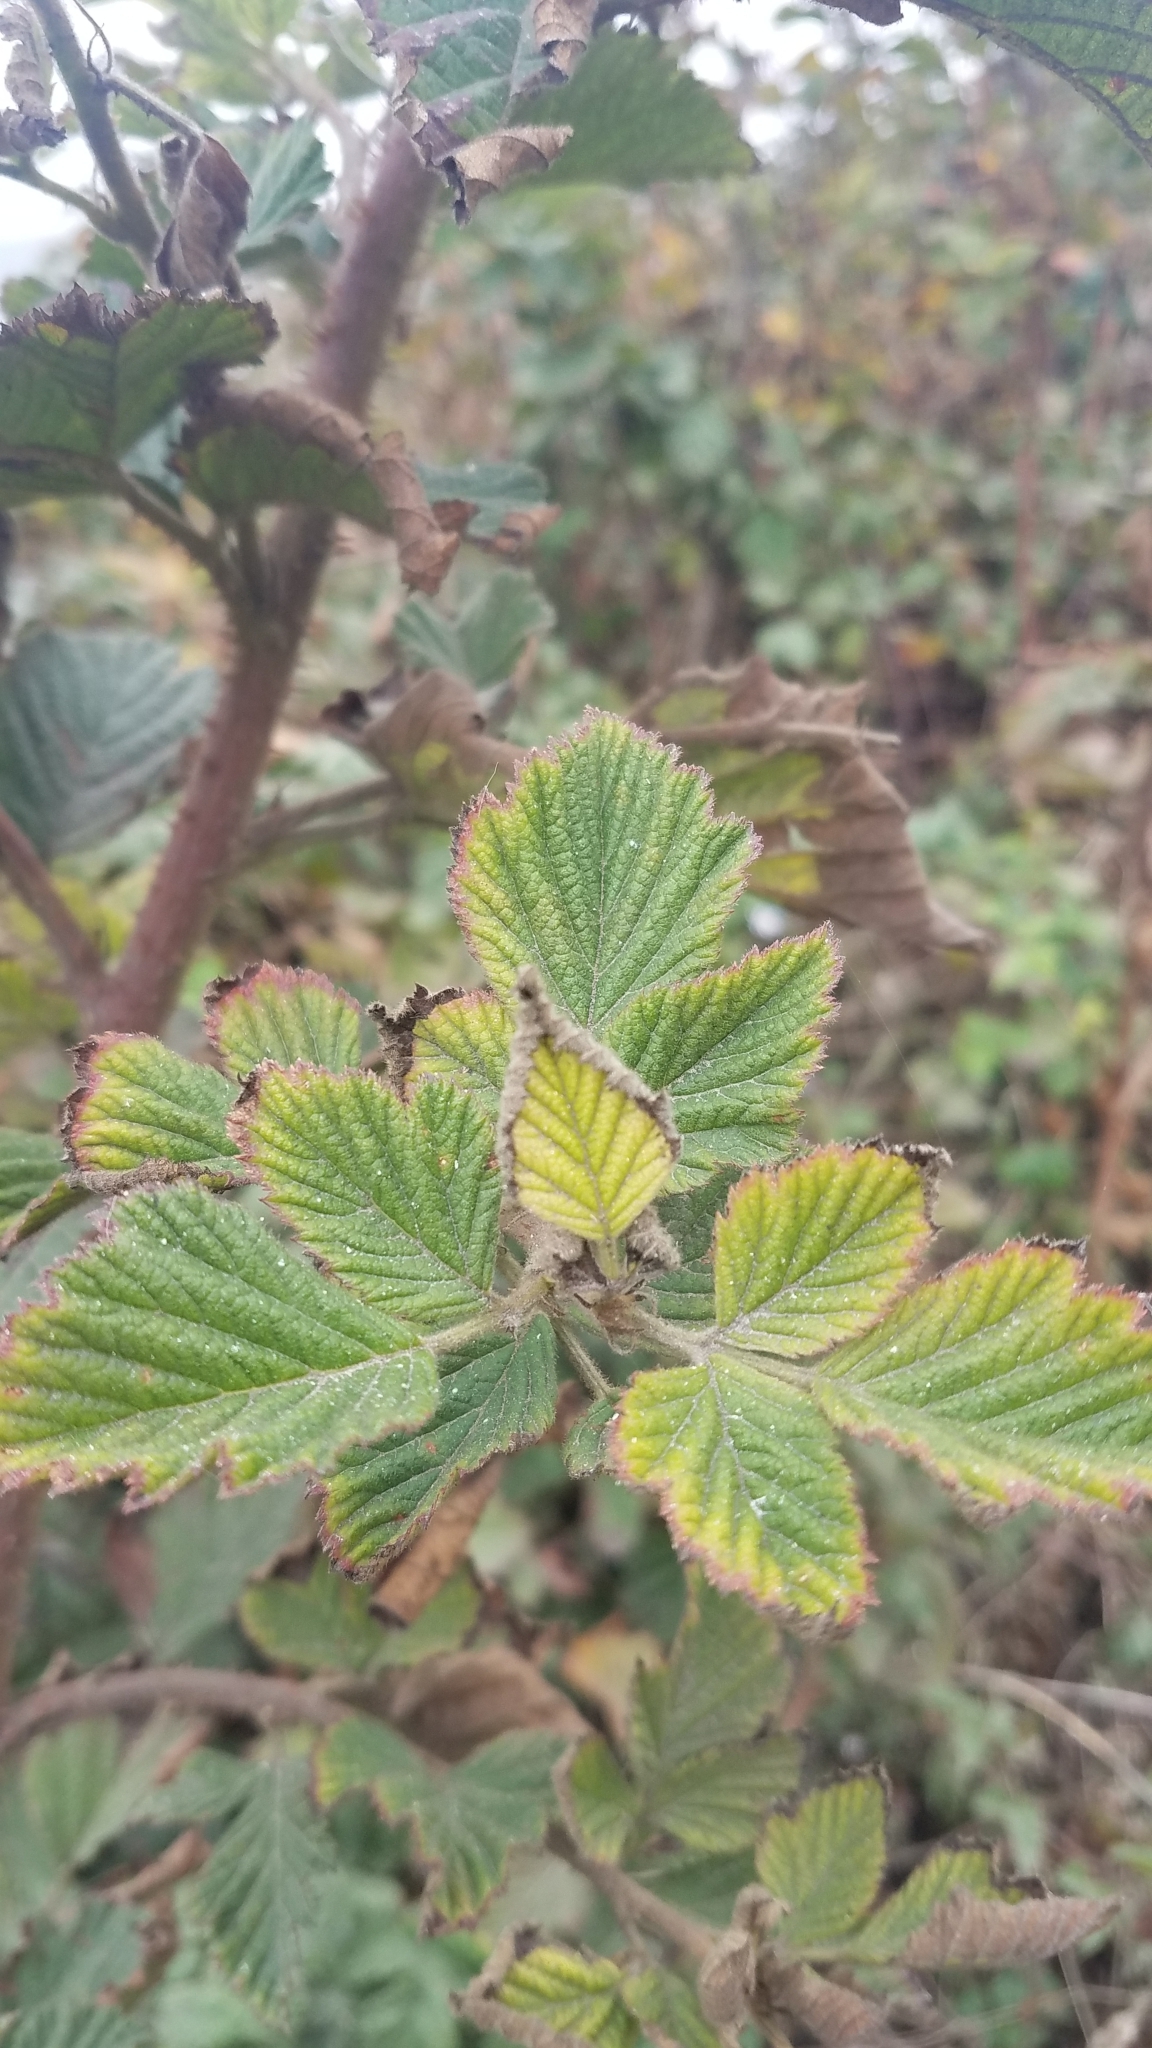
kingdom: Plantae
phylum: Tracheophyta
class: Magnoliopsida
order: Rosales
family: Rosaceae
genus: Rubus
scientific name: Rubus spectabilis
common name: Salmonberry
